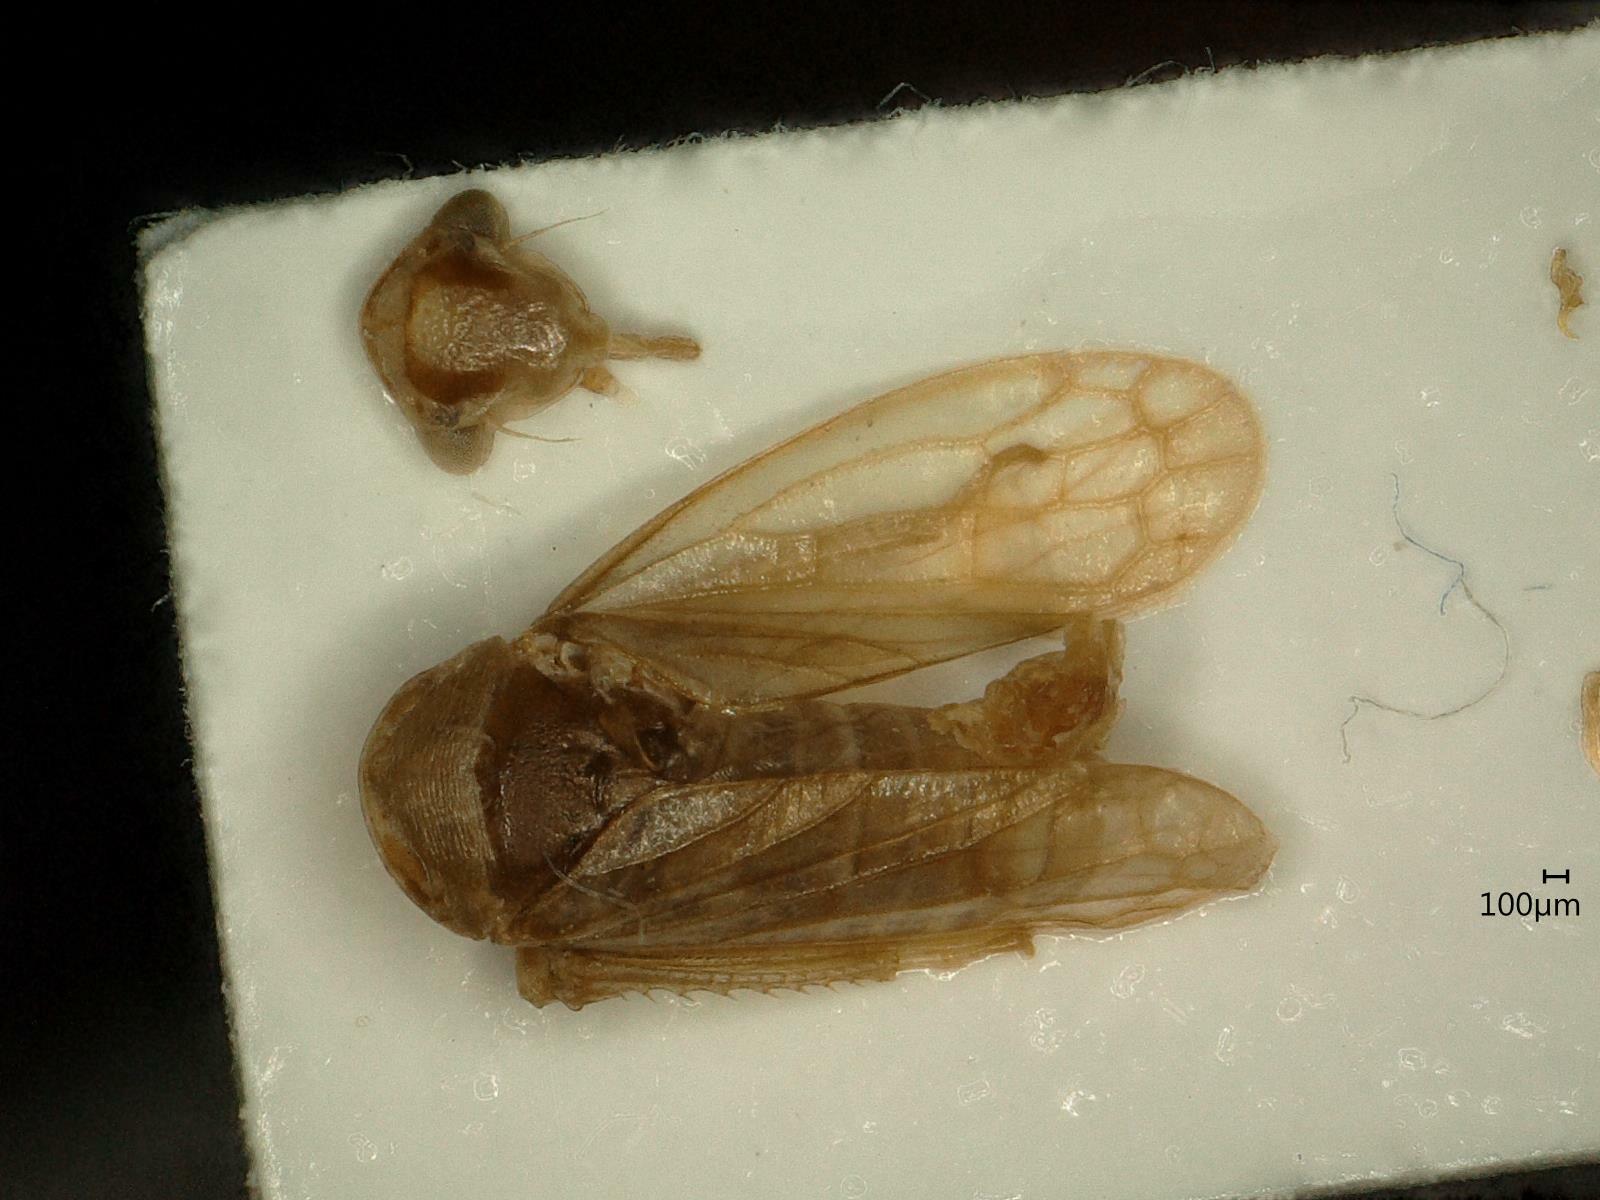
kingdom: Animalia
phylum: Arthropoda
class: Insecta
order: Hemiptera
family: Cicadellidae
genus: Oncopsis
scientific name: Oncopsis subangulata
